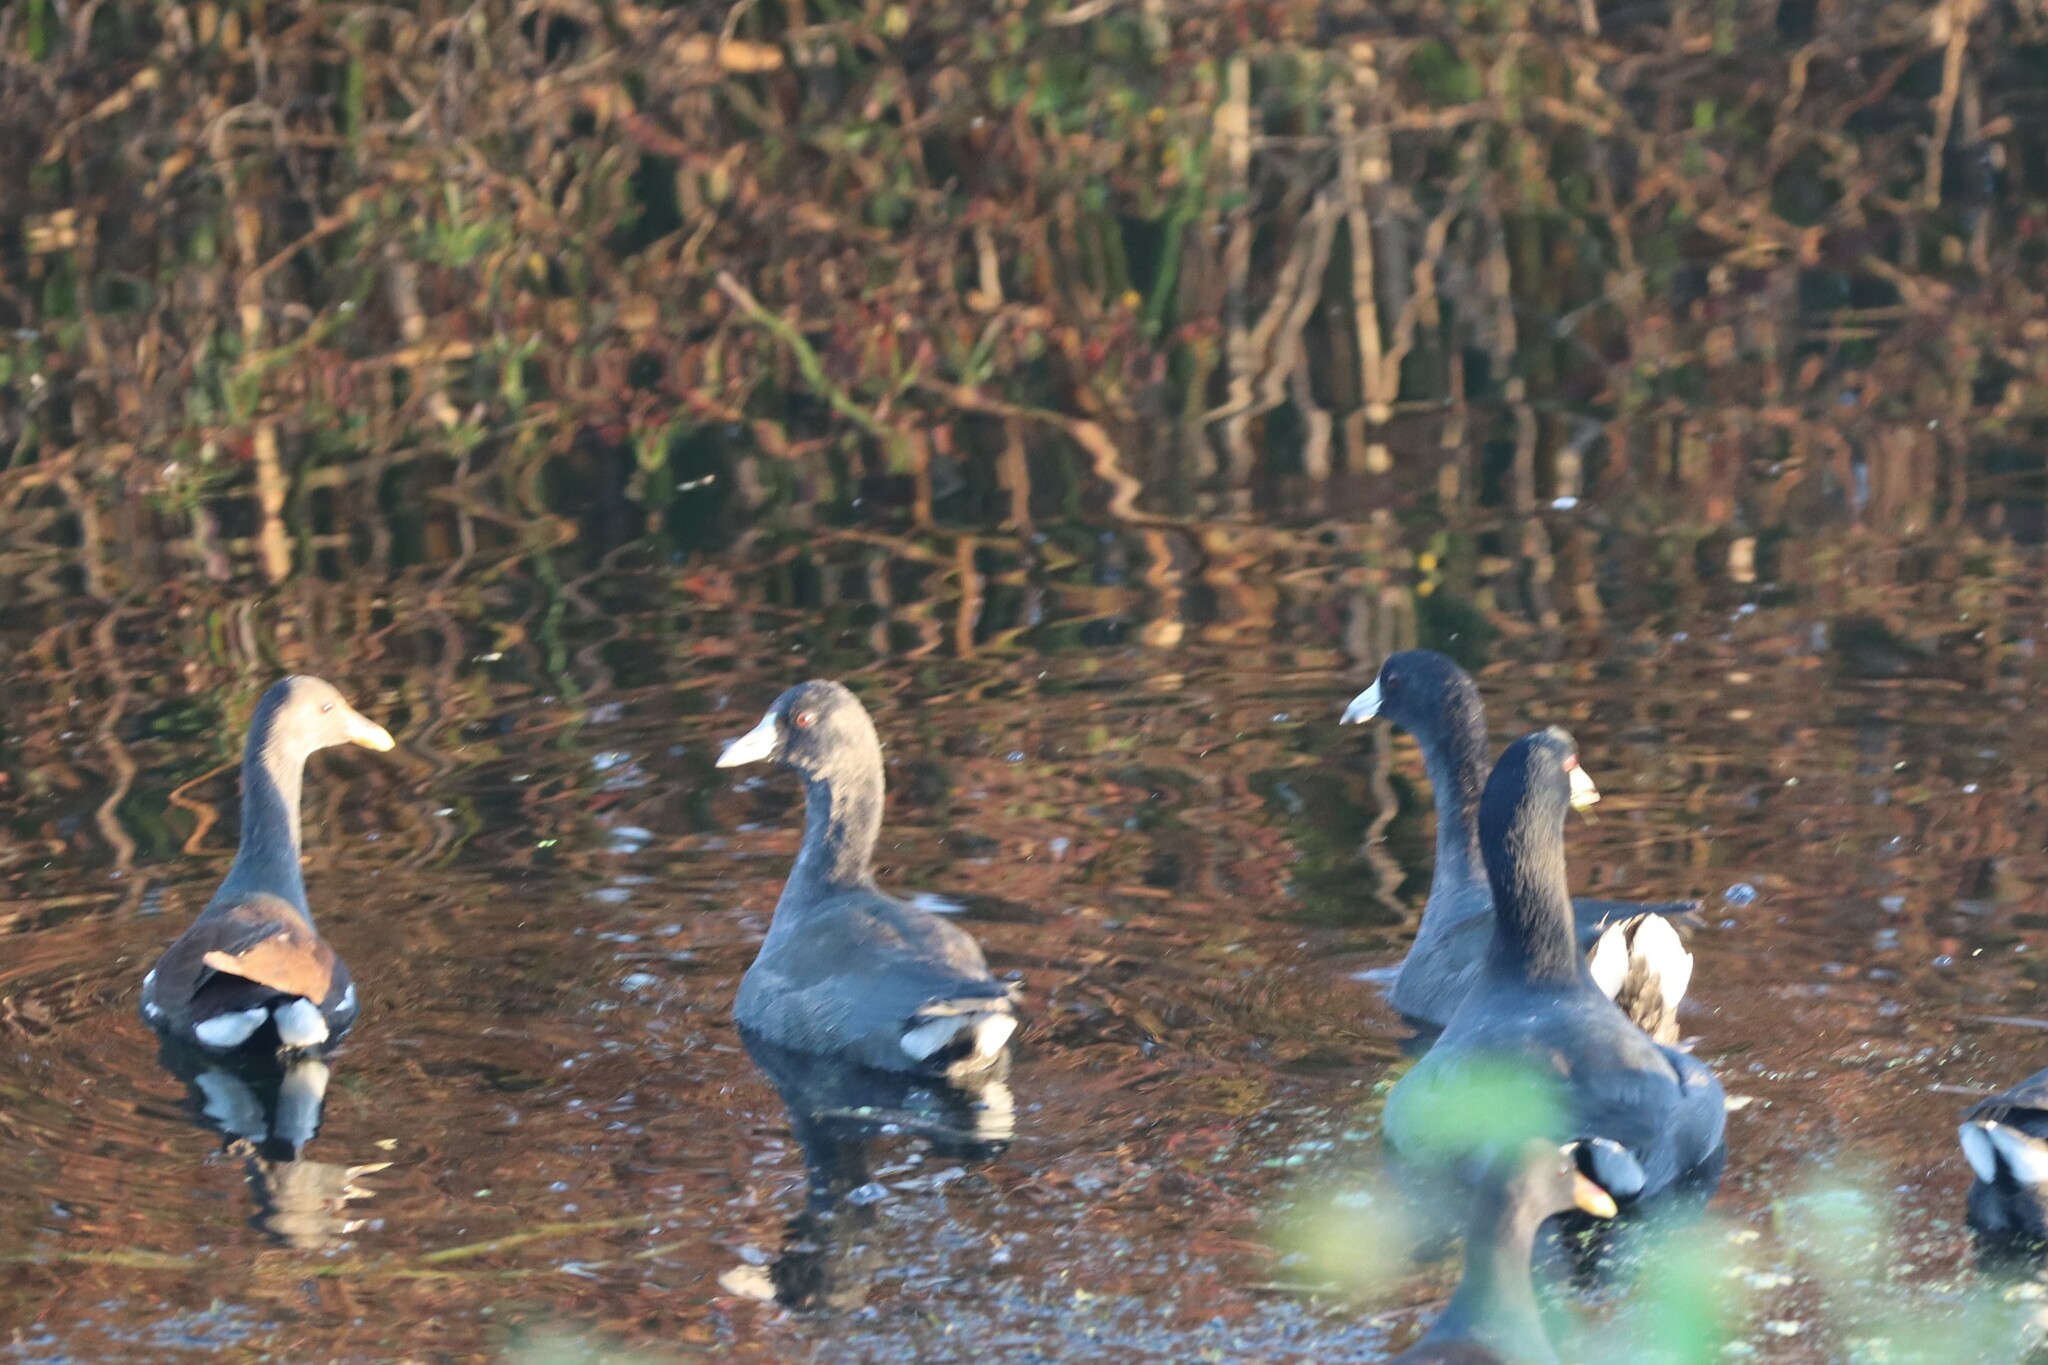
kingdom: Animalia
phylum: Chordata
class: Aves
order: Gruiformes
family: Rallidae
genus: Fulica
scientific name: Fulica americana
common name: American coot
